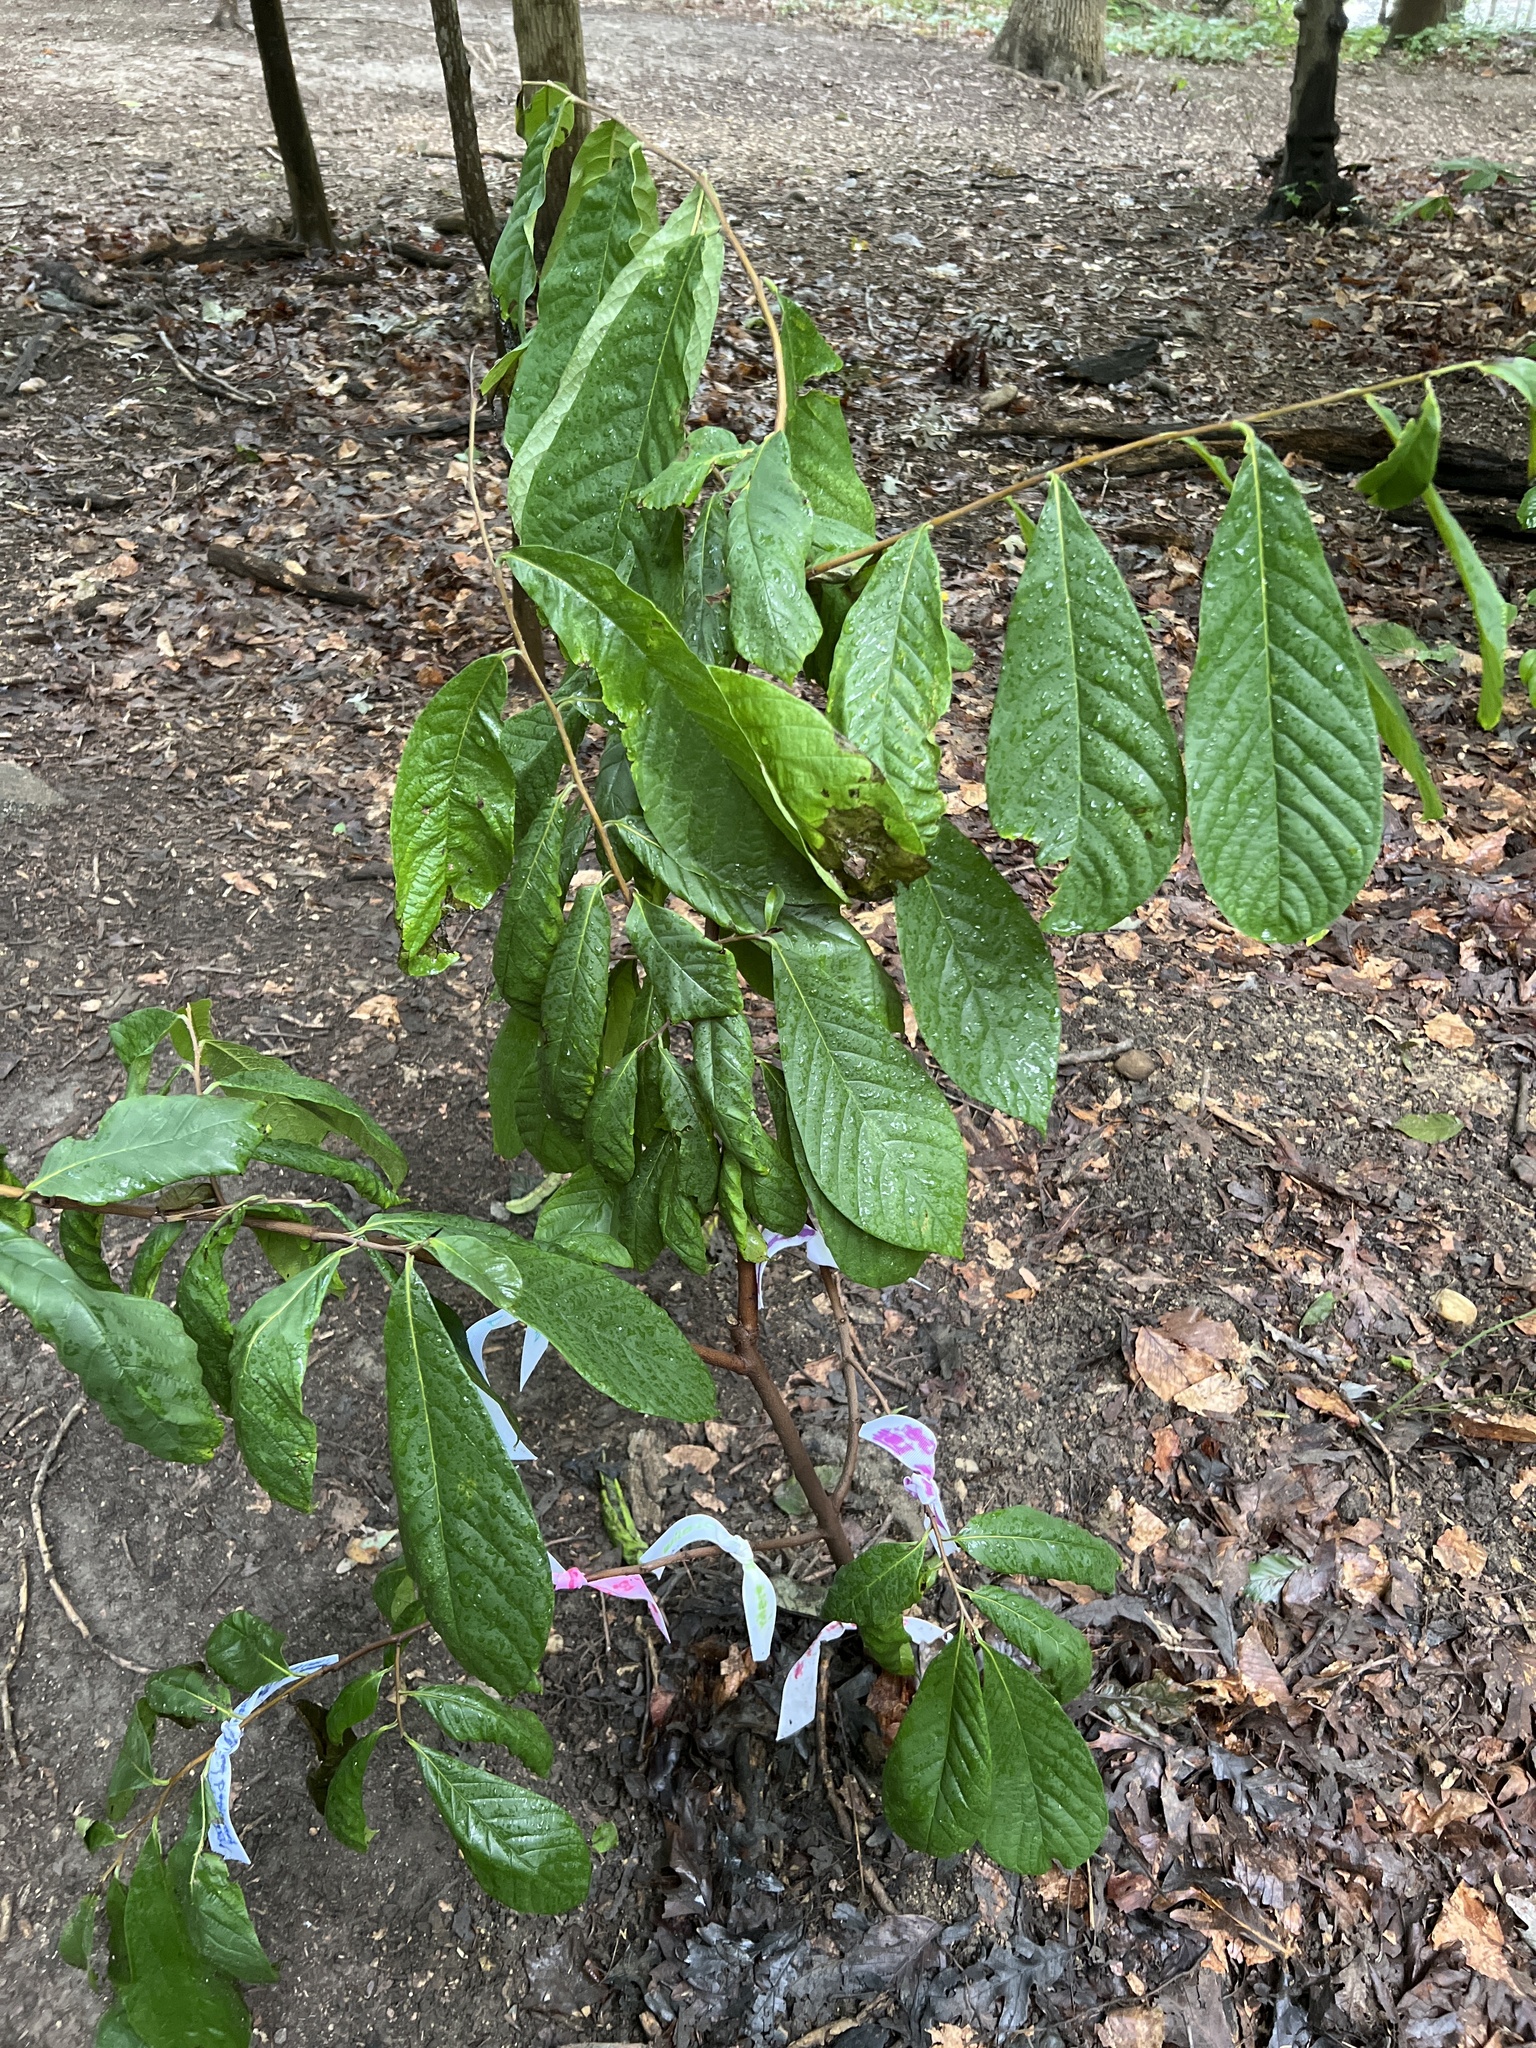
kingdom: Plantae
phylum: Tracheophyta
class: Magnoliopsida
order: Magnoliales
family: Annonaceae
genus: Asimina
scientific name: Asimina triloba
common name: Dog-banana
